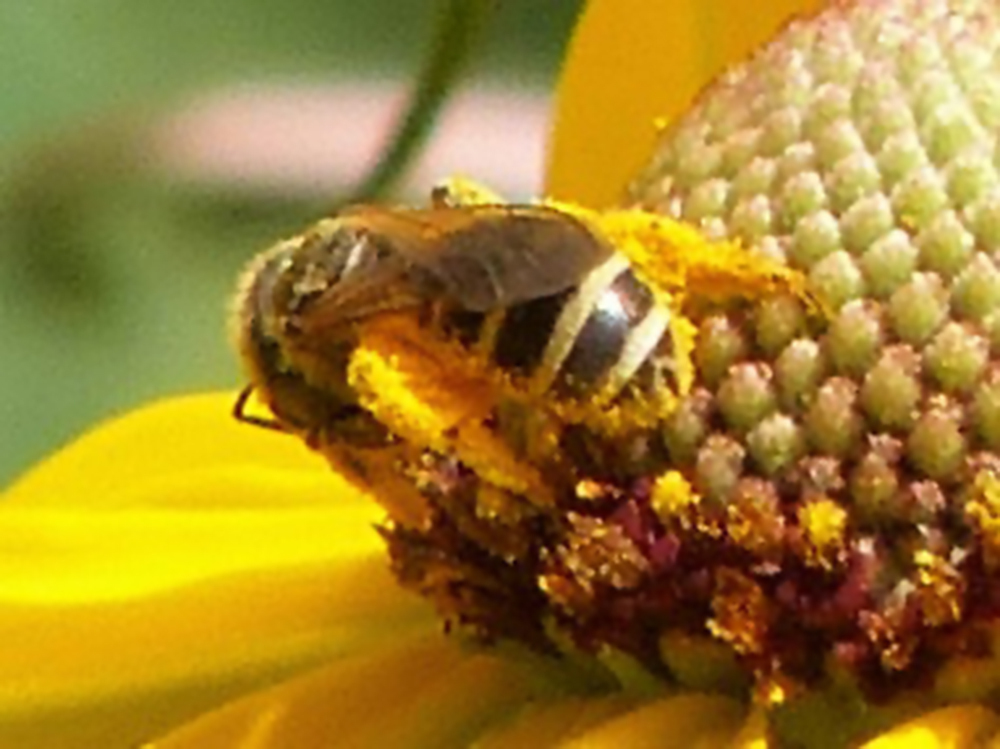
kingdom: Animalia
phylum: Arthropoda
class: Insecta
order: Hymenoptera
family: Halictidae
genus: Halictus
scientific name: Halictus ligatus
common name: Ligated furrow bee
